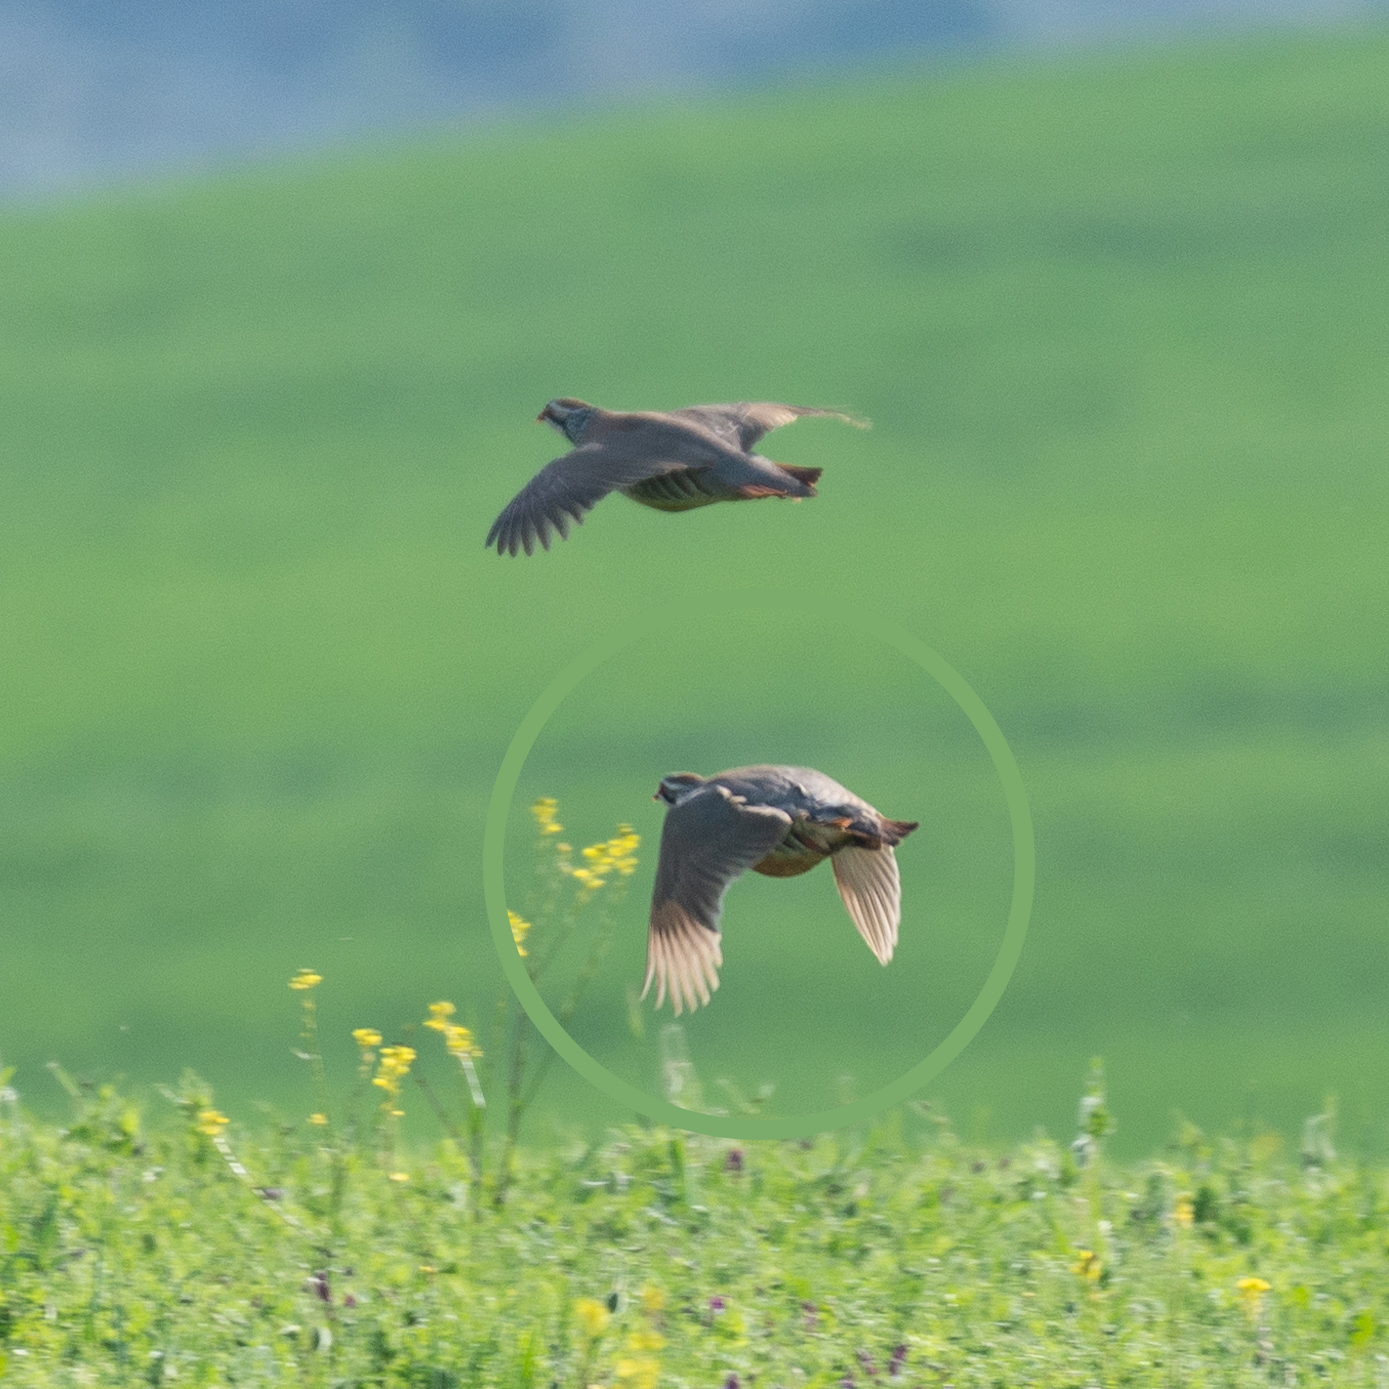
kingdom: Animalia
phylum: Chordata
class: Aves
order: Galliformes
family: Phasianidae
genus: Alectoris
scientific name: Alectoris rufa
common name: Red-legged partridge
